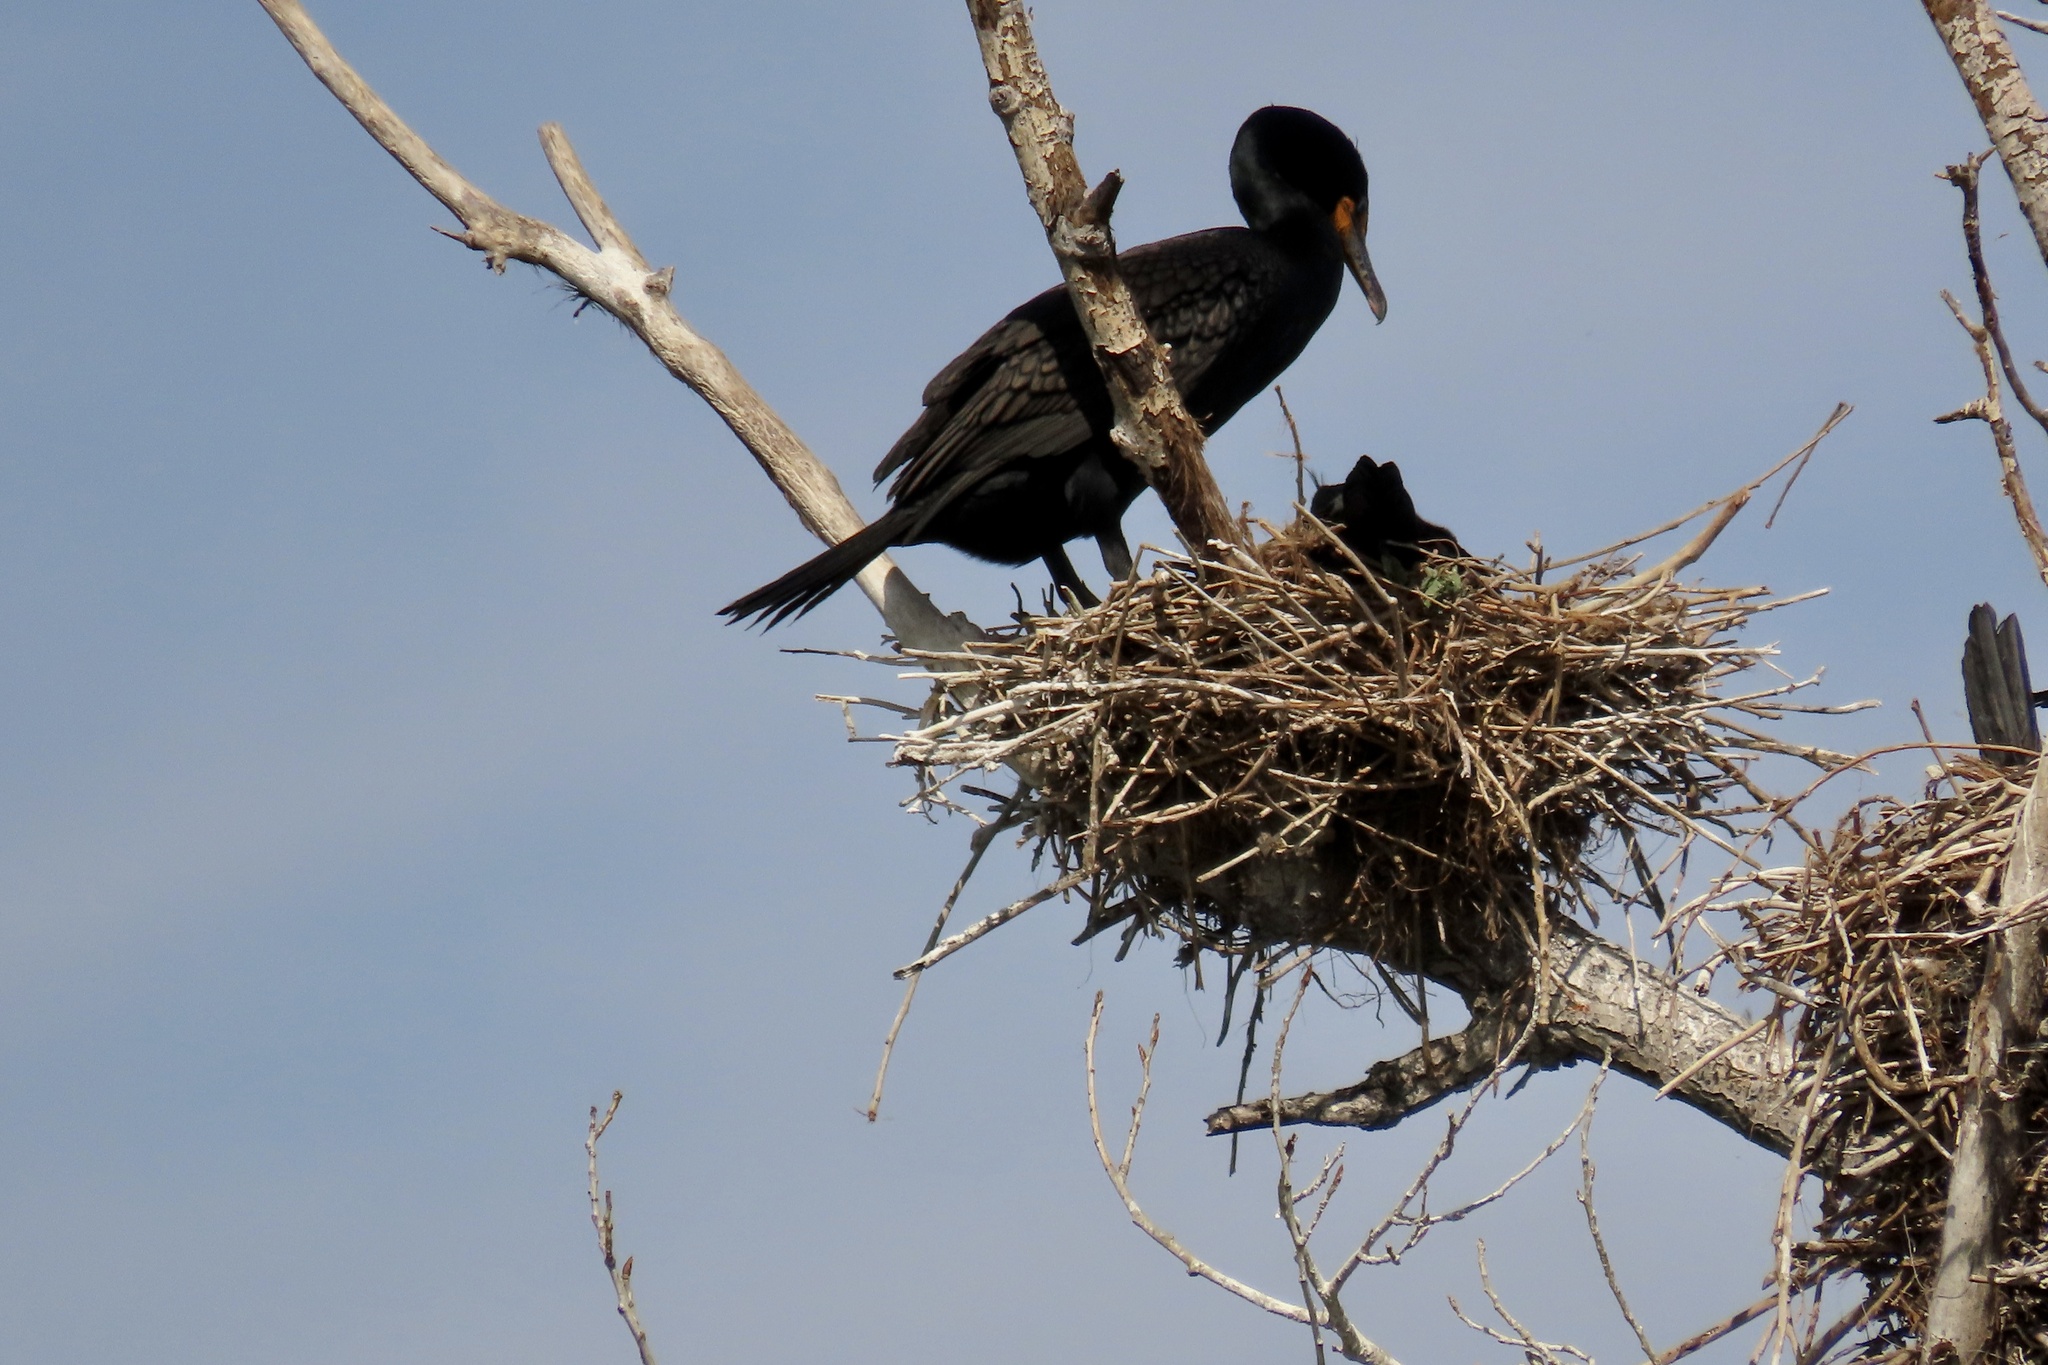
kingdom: Animalia
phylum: Chordata
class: Aves
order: Suliformes
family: Phalacrocoracidae
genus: Phalacrocorax
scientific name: Phalacrocorax auritus
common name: Double-crested cormorant
